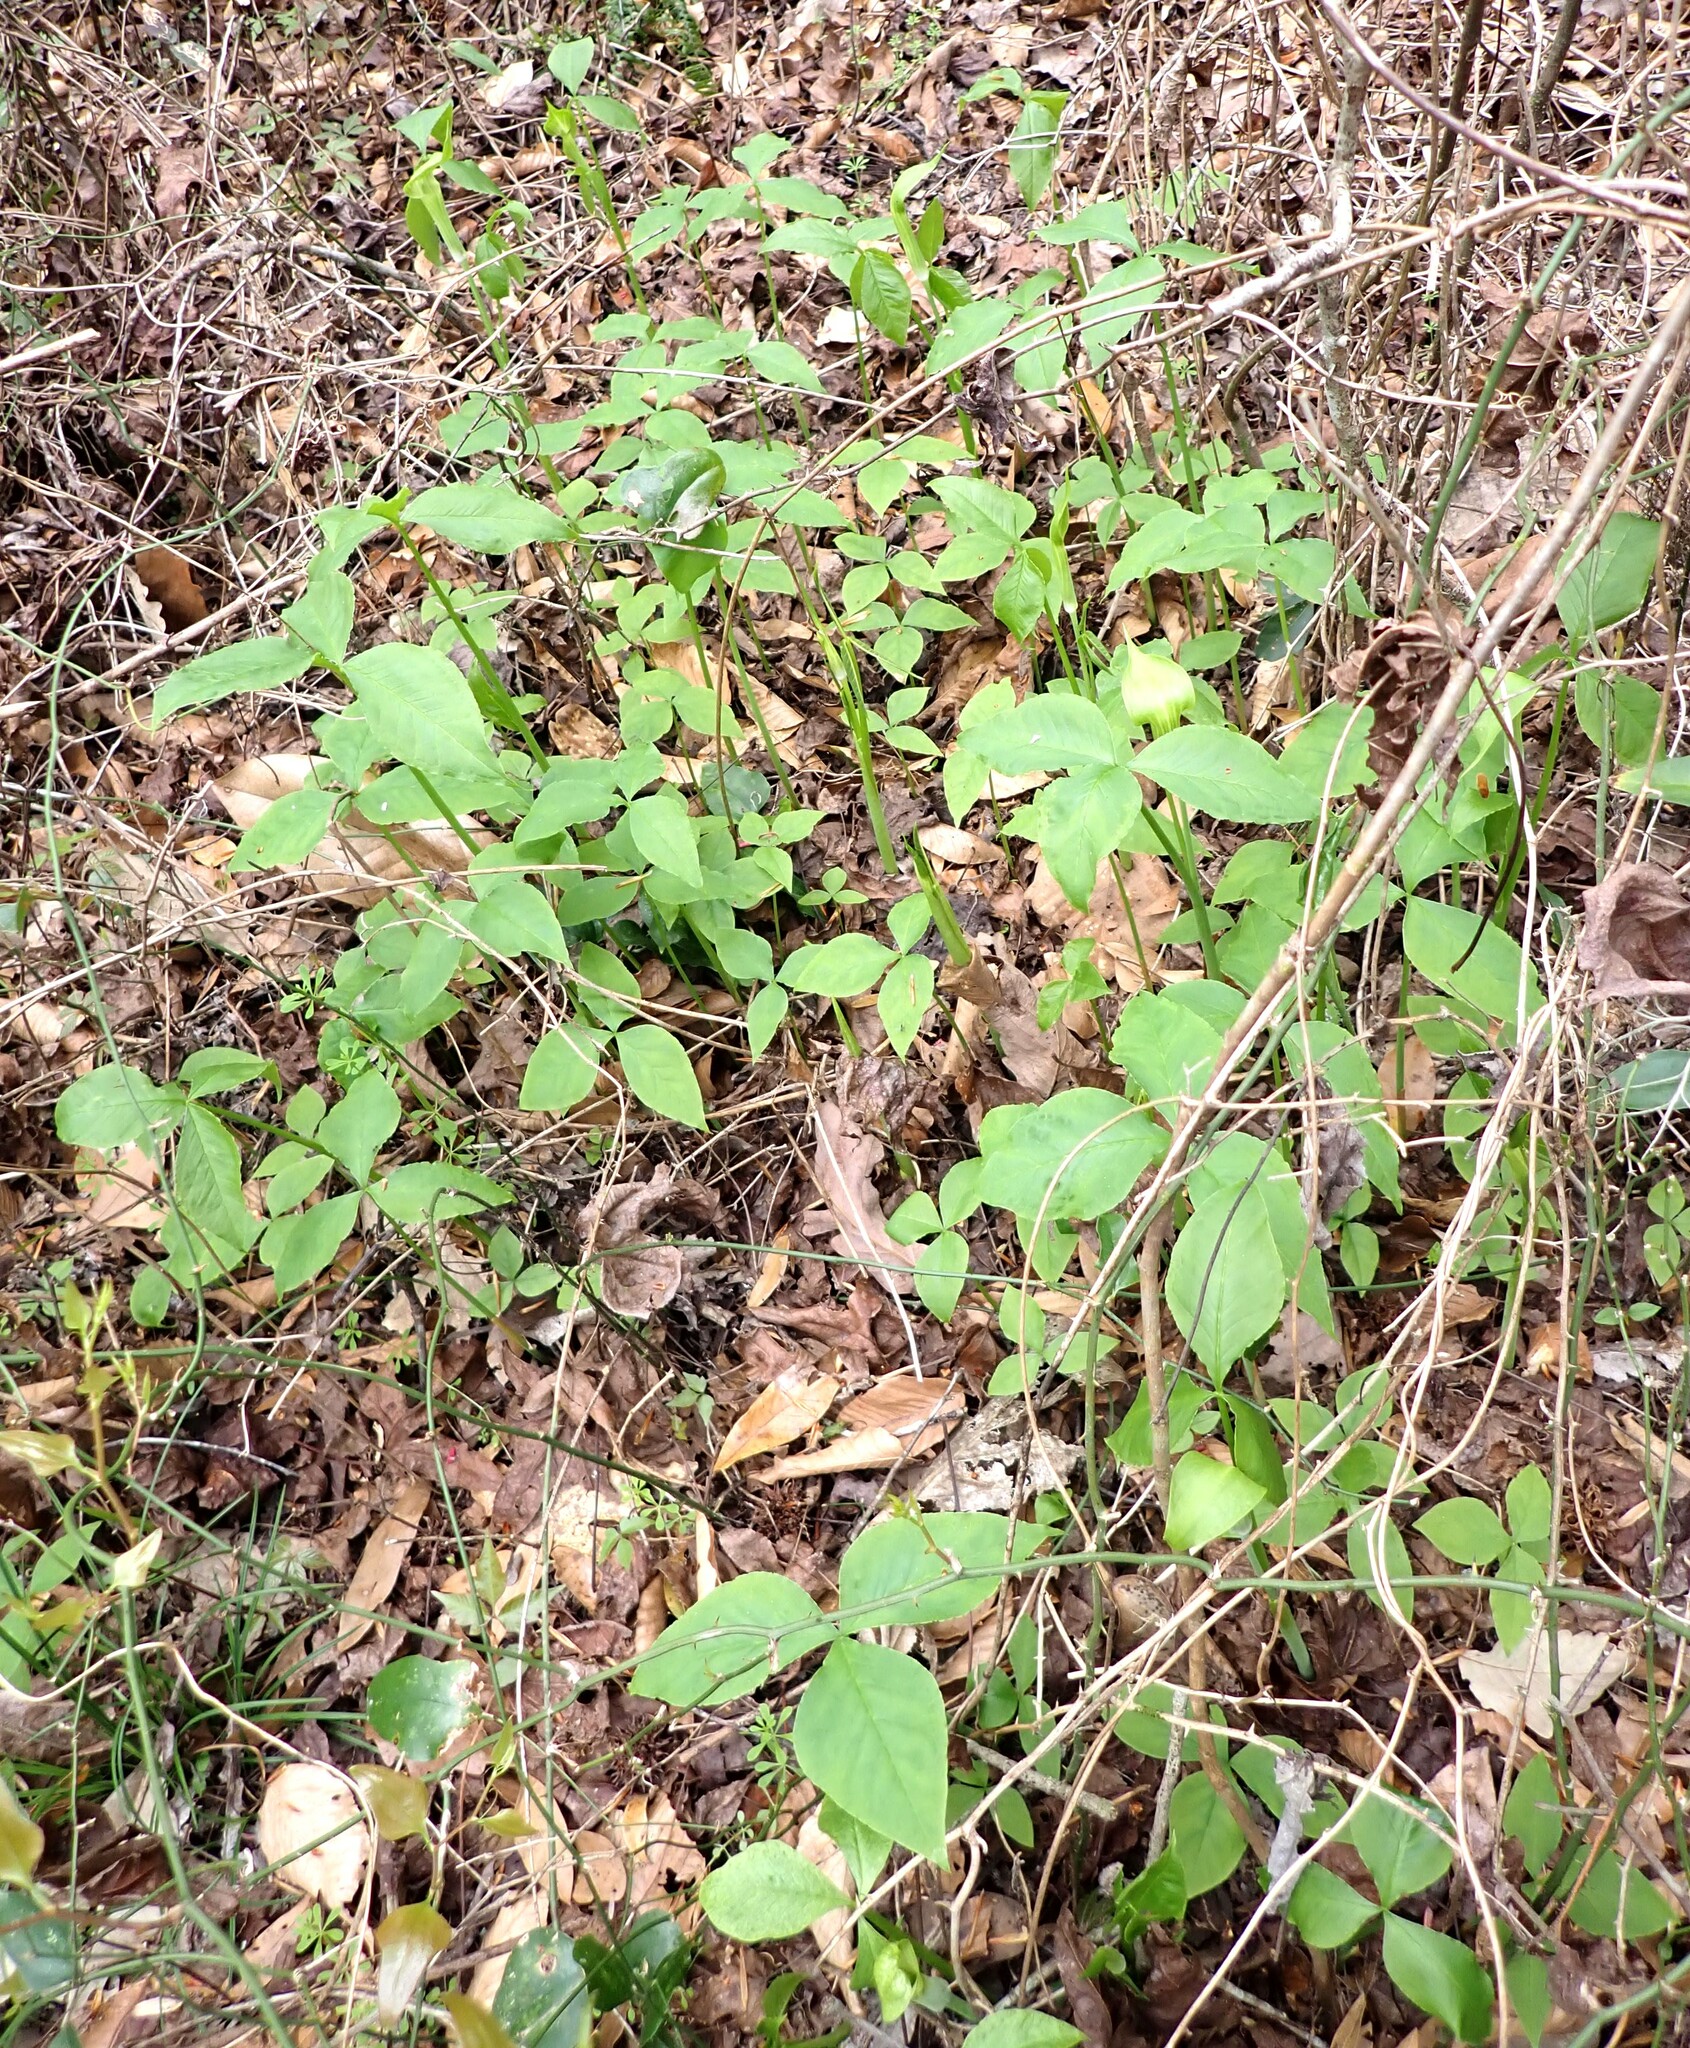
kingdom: Plantae
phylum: Tracheophyta
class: Liliopsida
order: Alismatales
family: Araceae
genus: Arisaema
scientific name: Arisaema acuminatum
